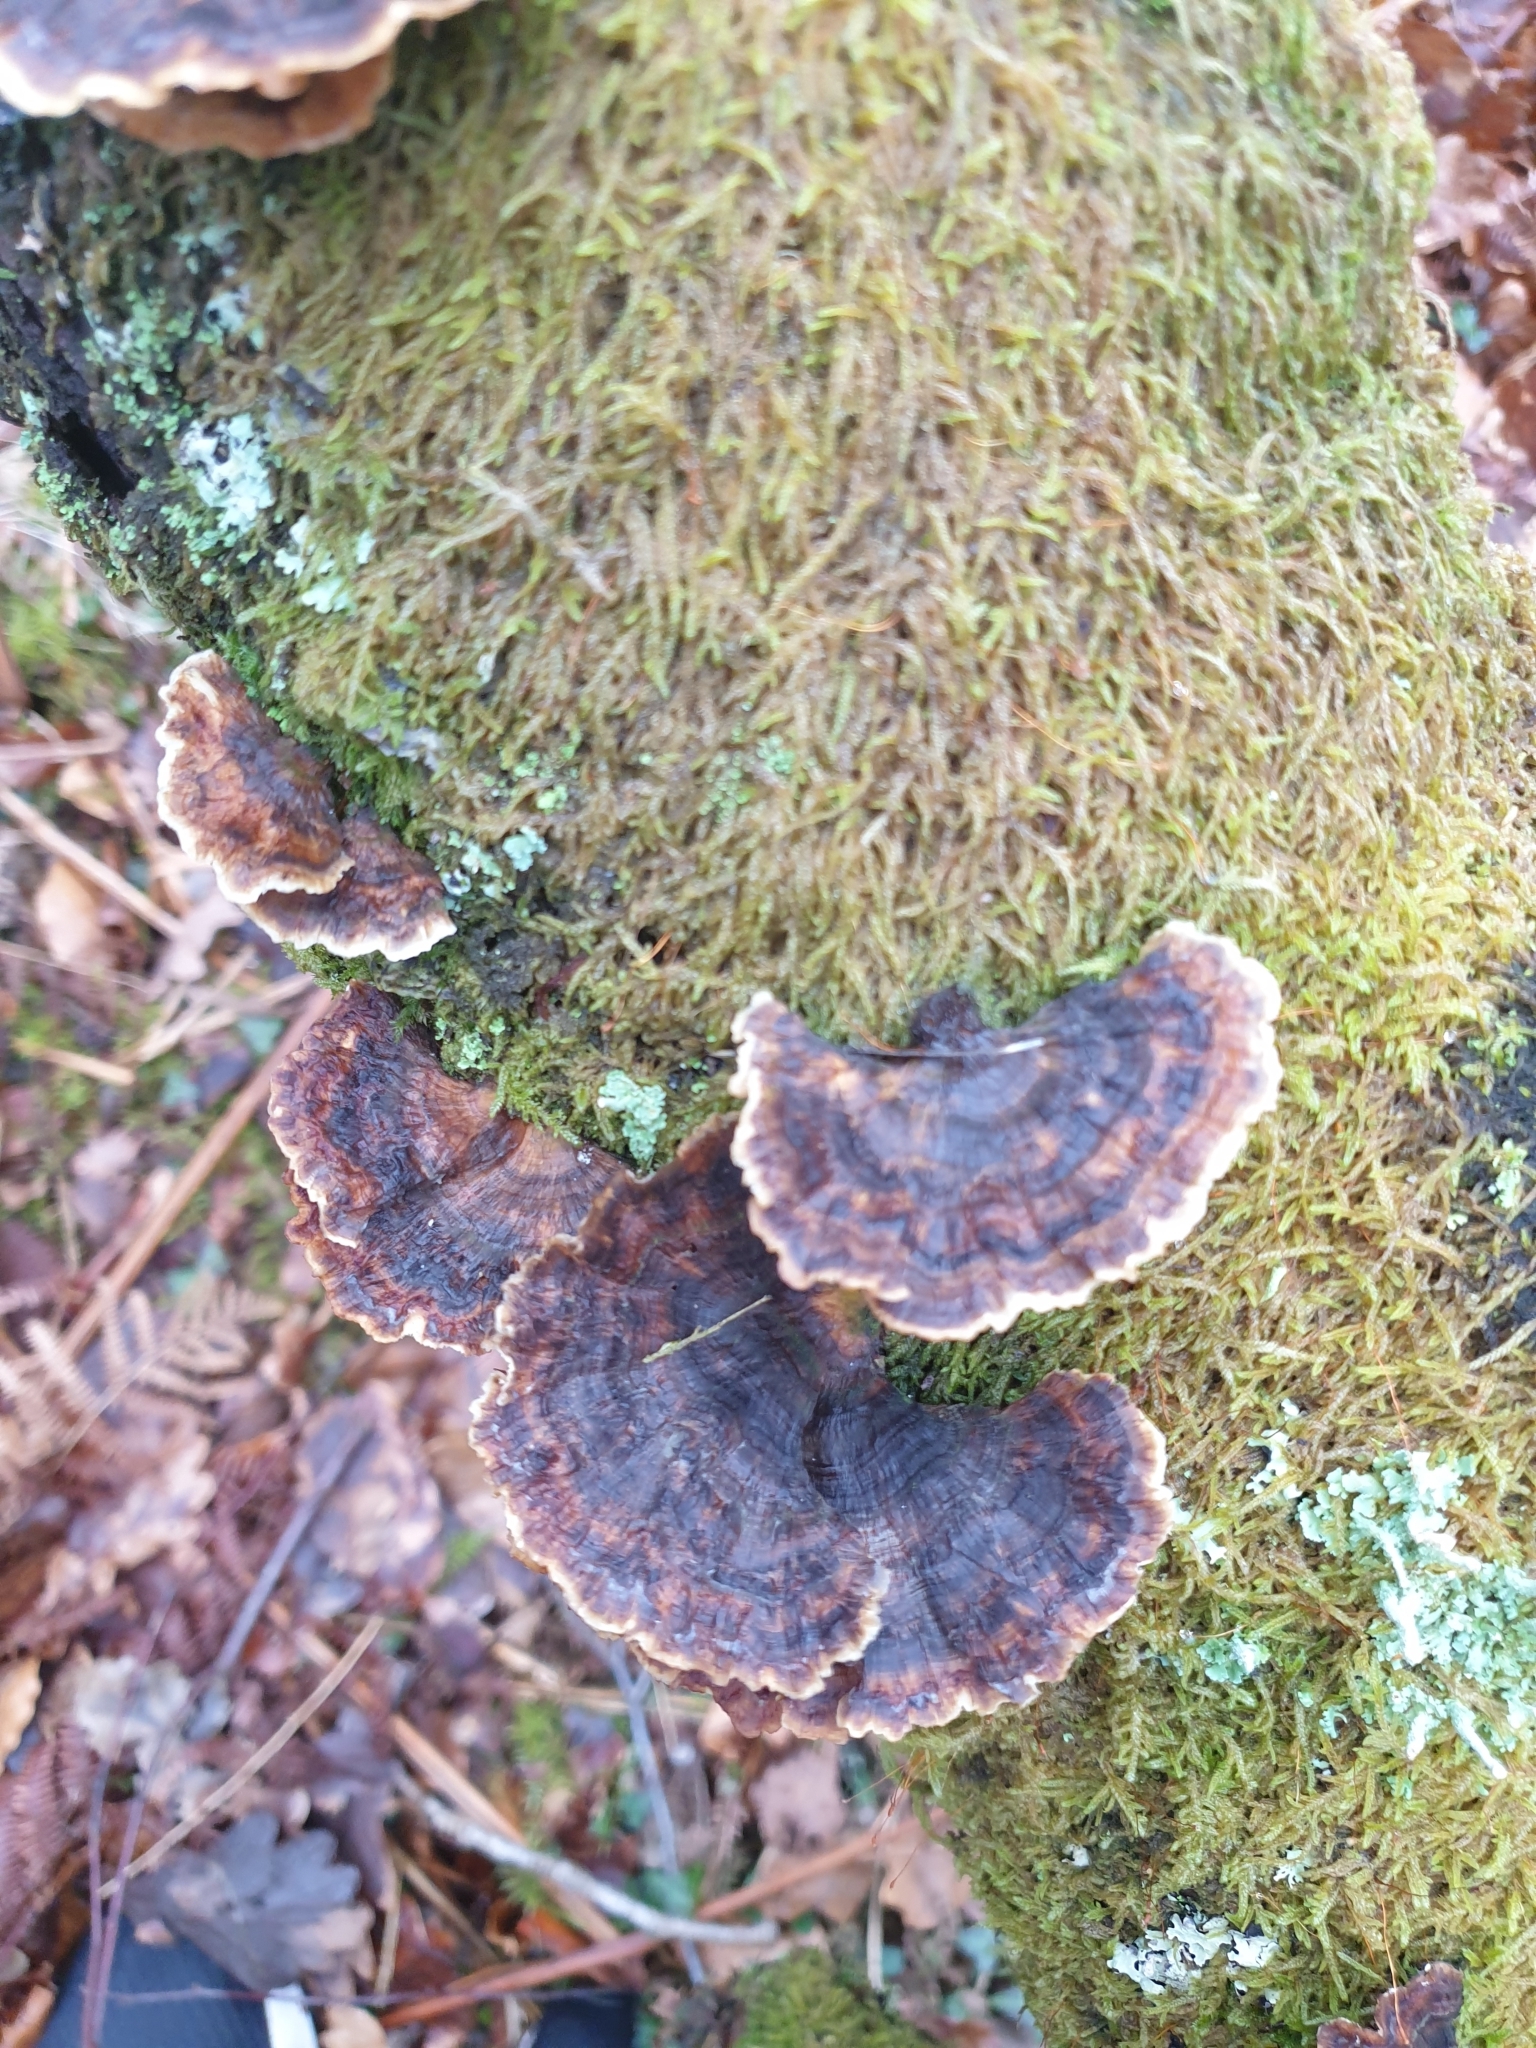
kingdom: Fungi
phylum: Basidiomycota
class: Agaricomycetes
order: Polyporales
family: Polyporaceae
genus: Trametes
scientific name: Trametes versicolor
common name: Turkeytail
